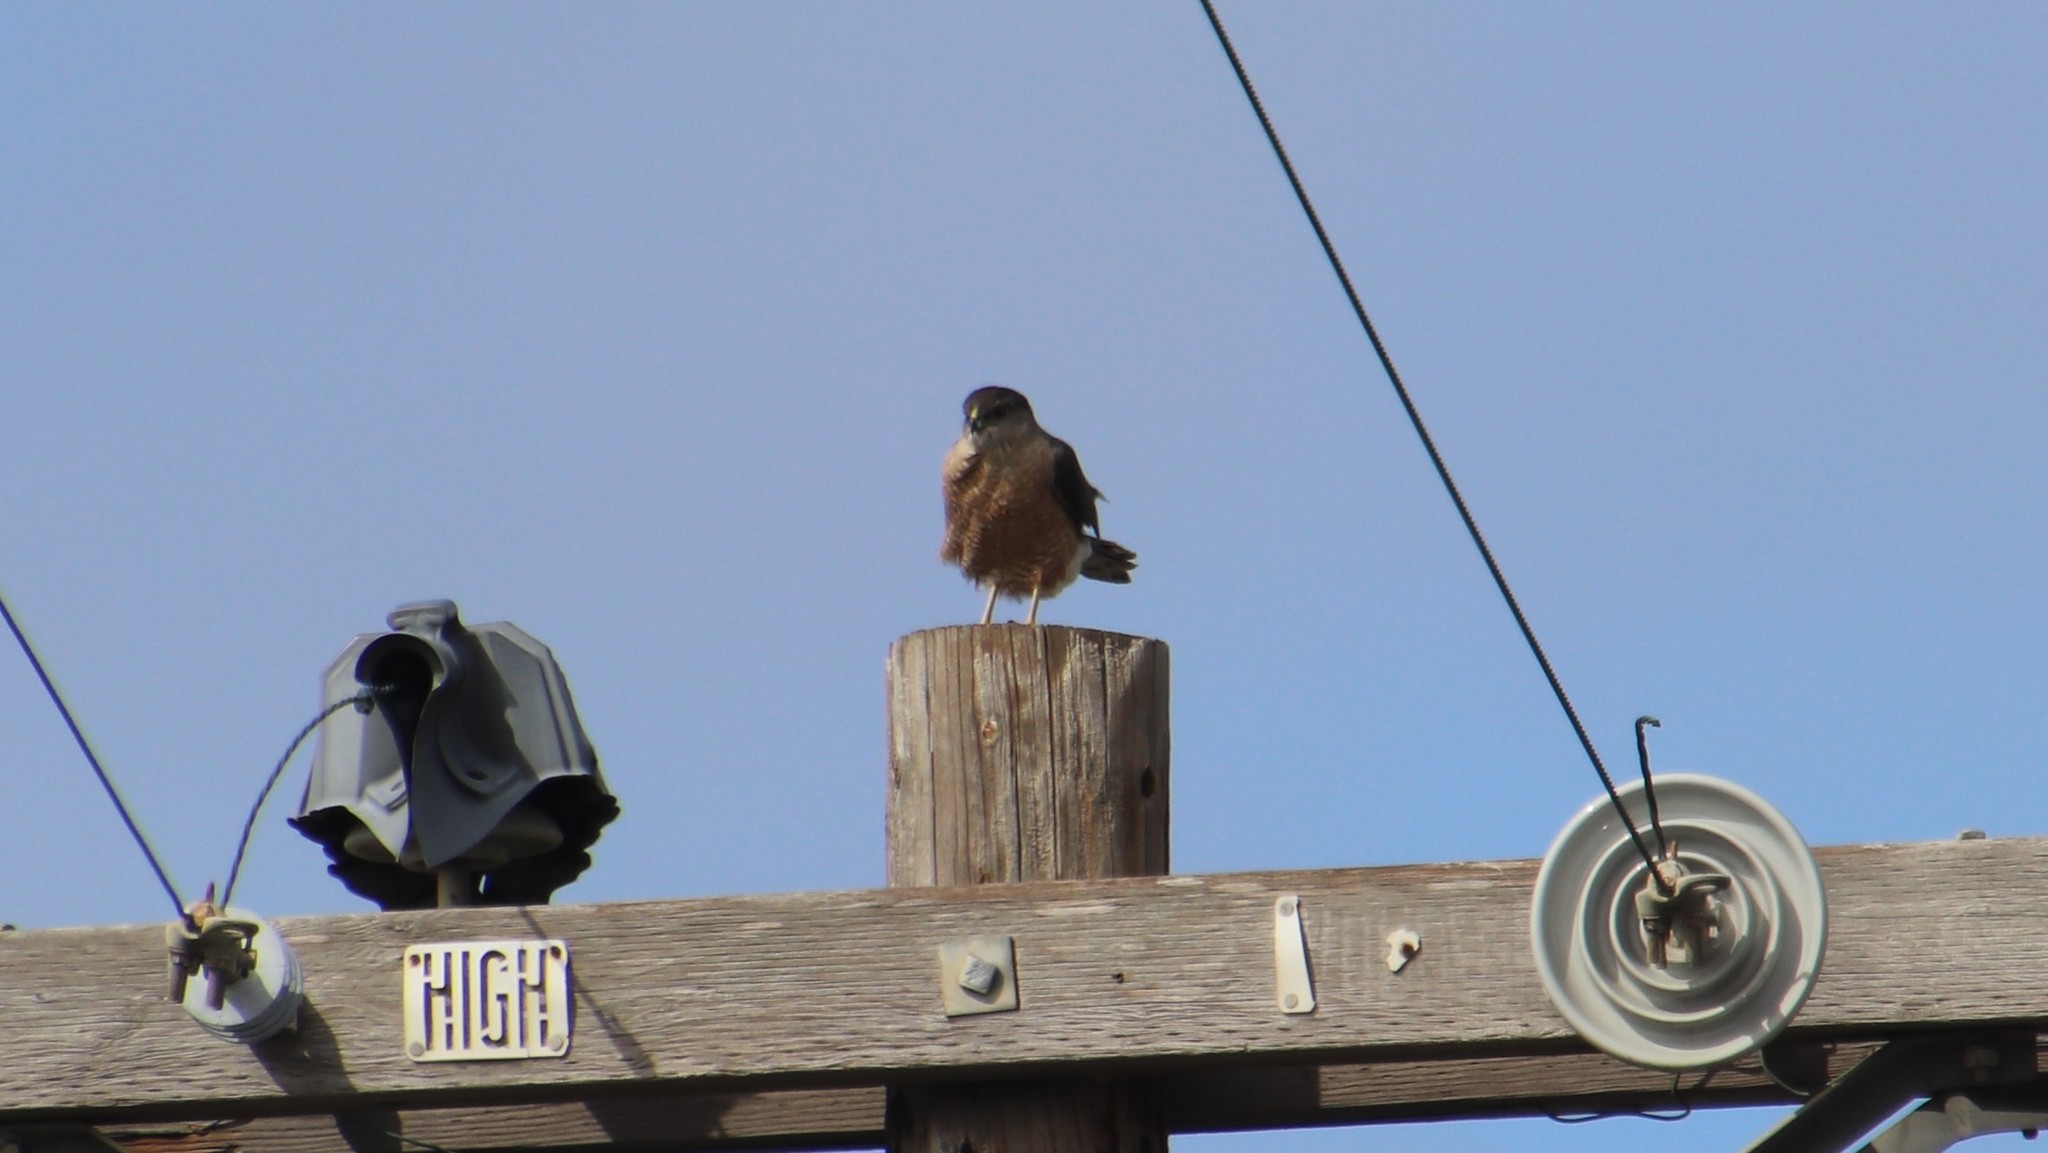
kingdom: Animalia
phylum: Chordata
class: Aves
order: Accipitriformes
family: Accipitridae
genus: Accipiter
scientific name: Accipiter cooperii
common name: Cooper's hawk
